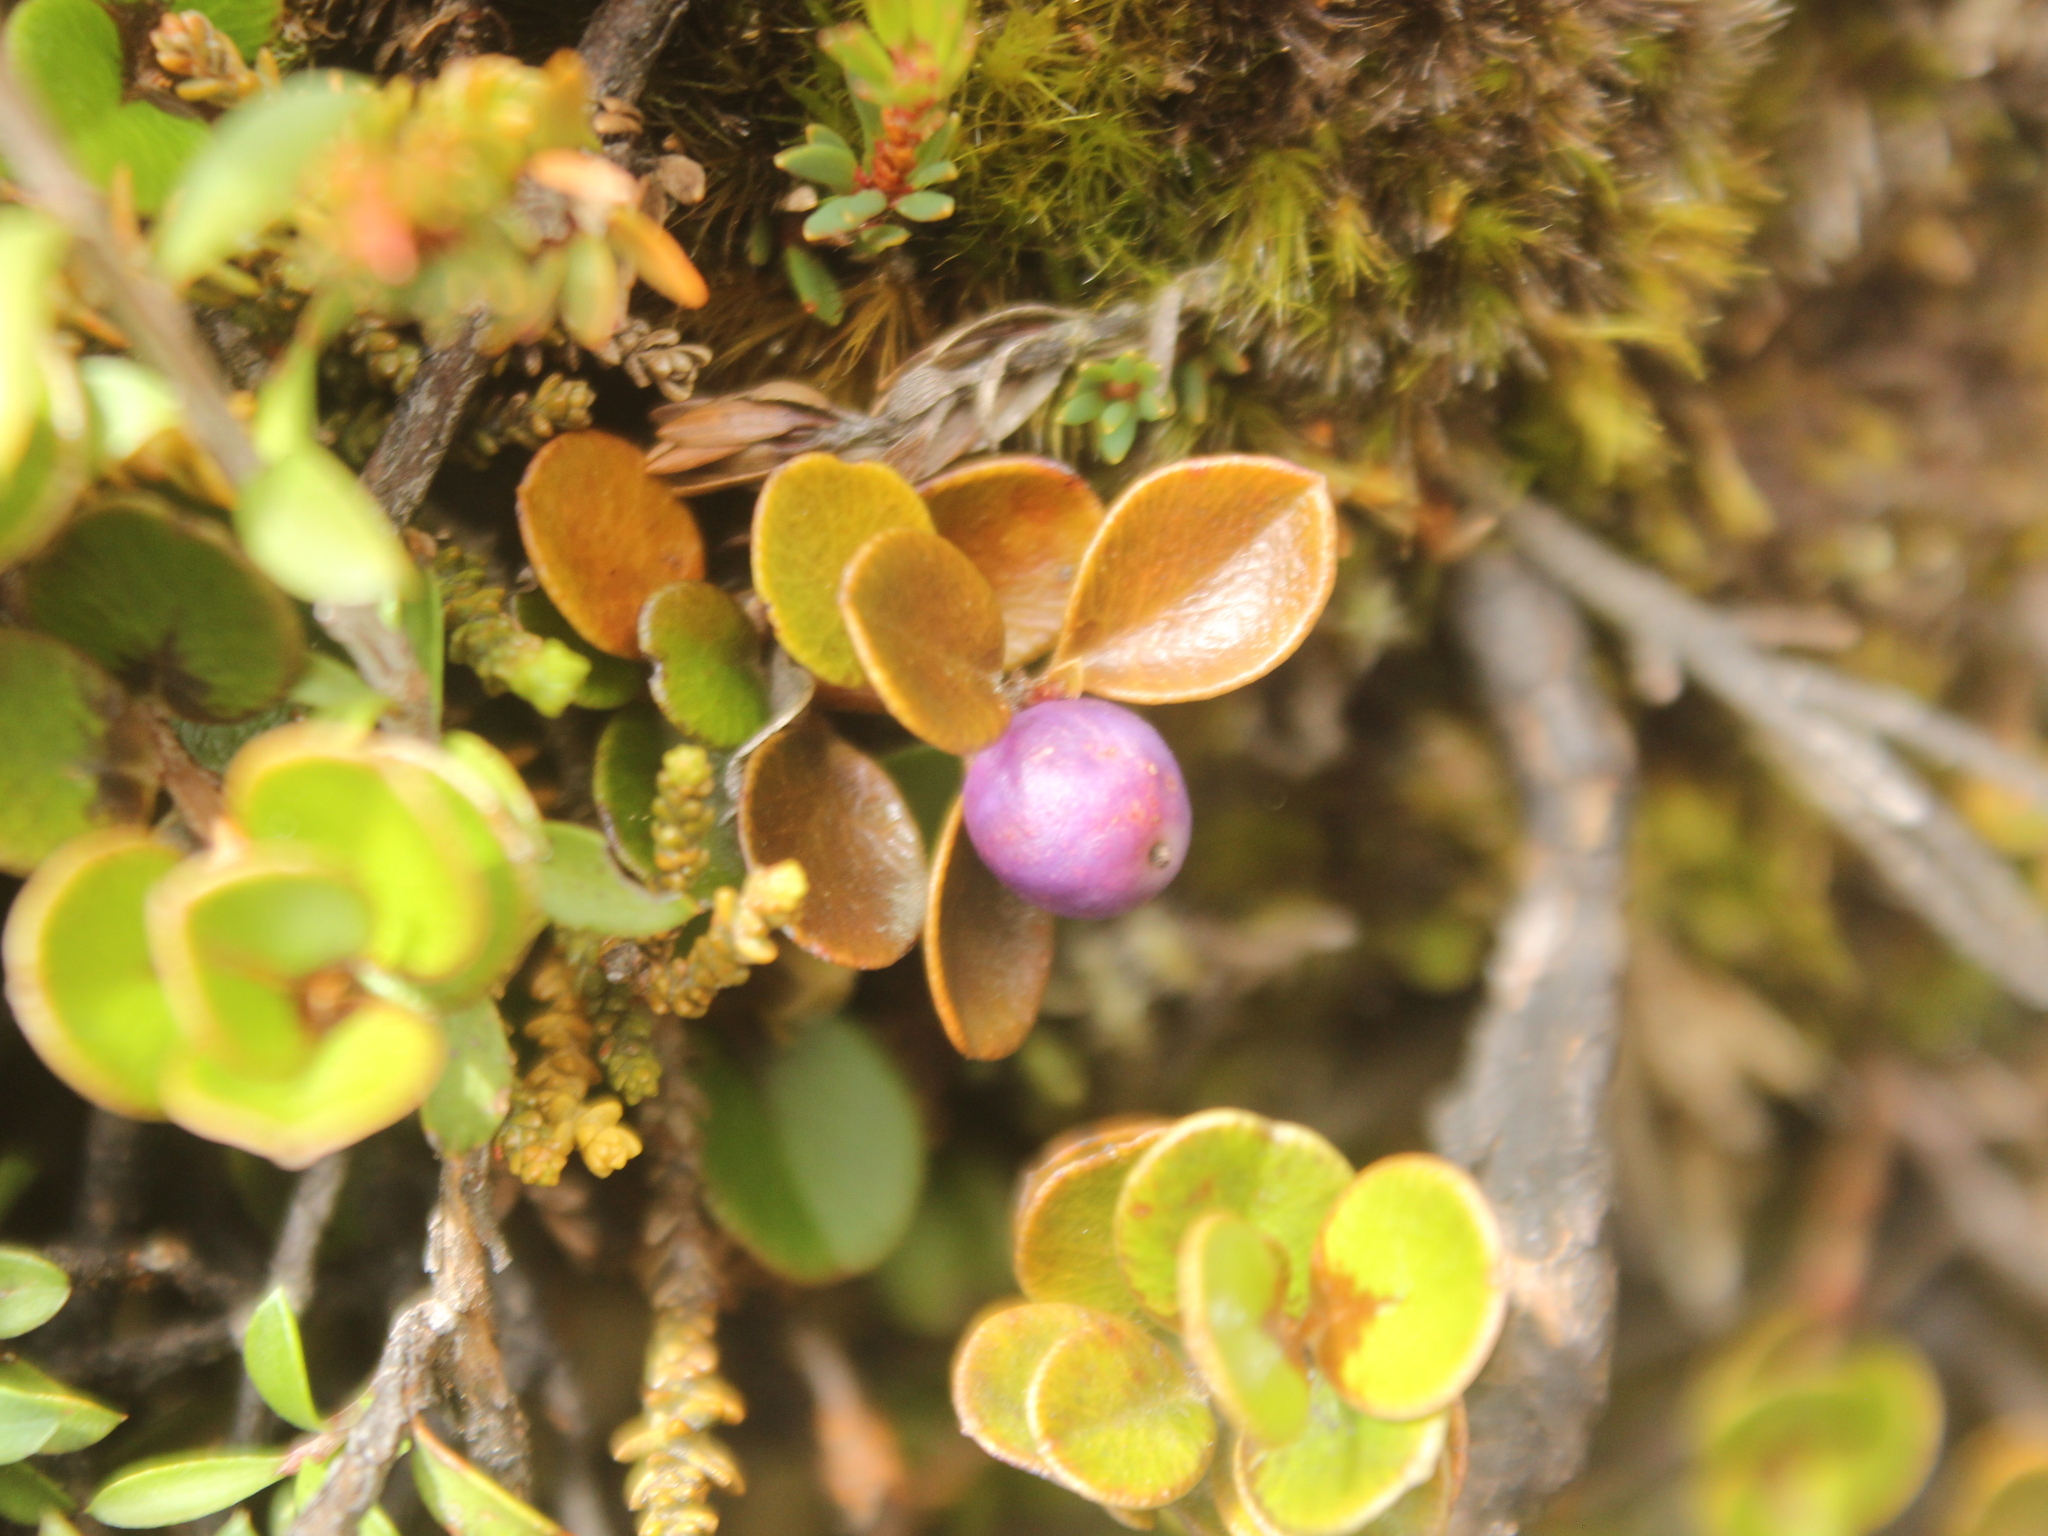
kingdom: Plantae
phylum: Tracheophyta
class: Magnoliopsida
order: Ericales
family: Primulaceae
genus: Myrsine
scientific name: Myrsine nummularia
